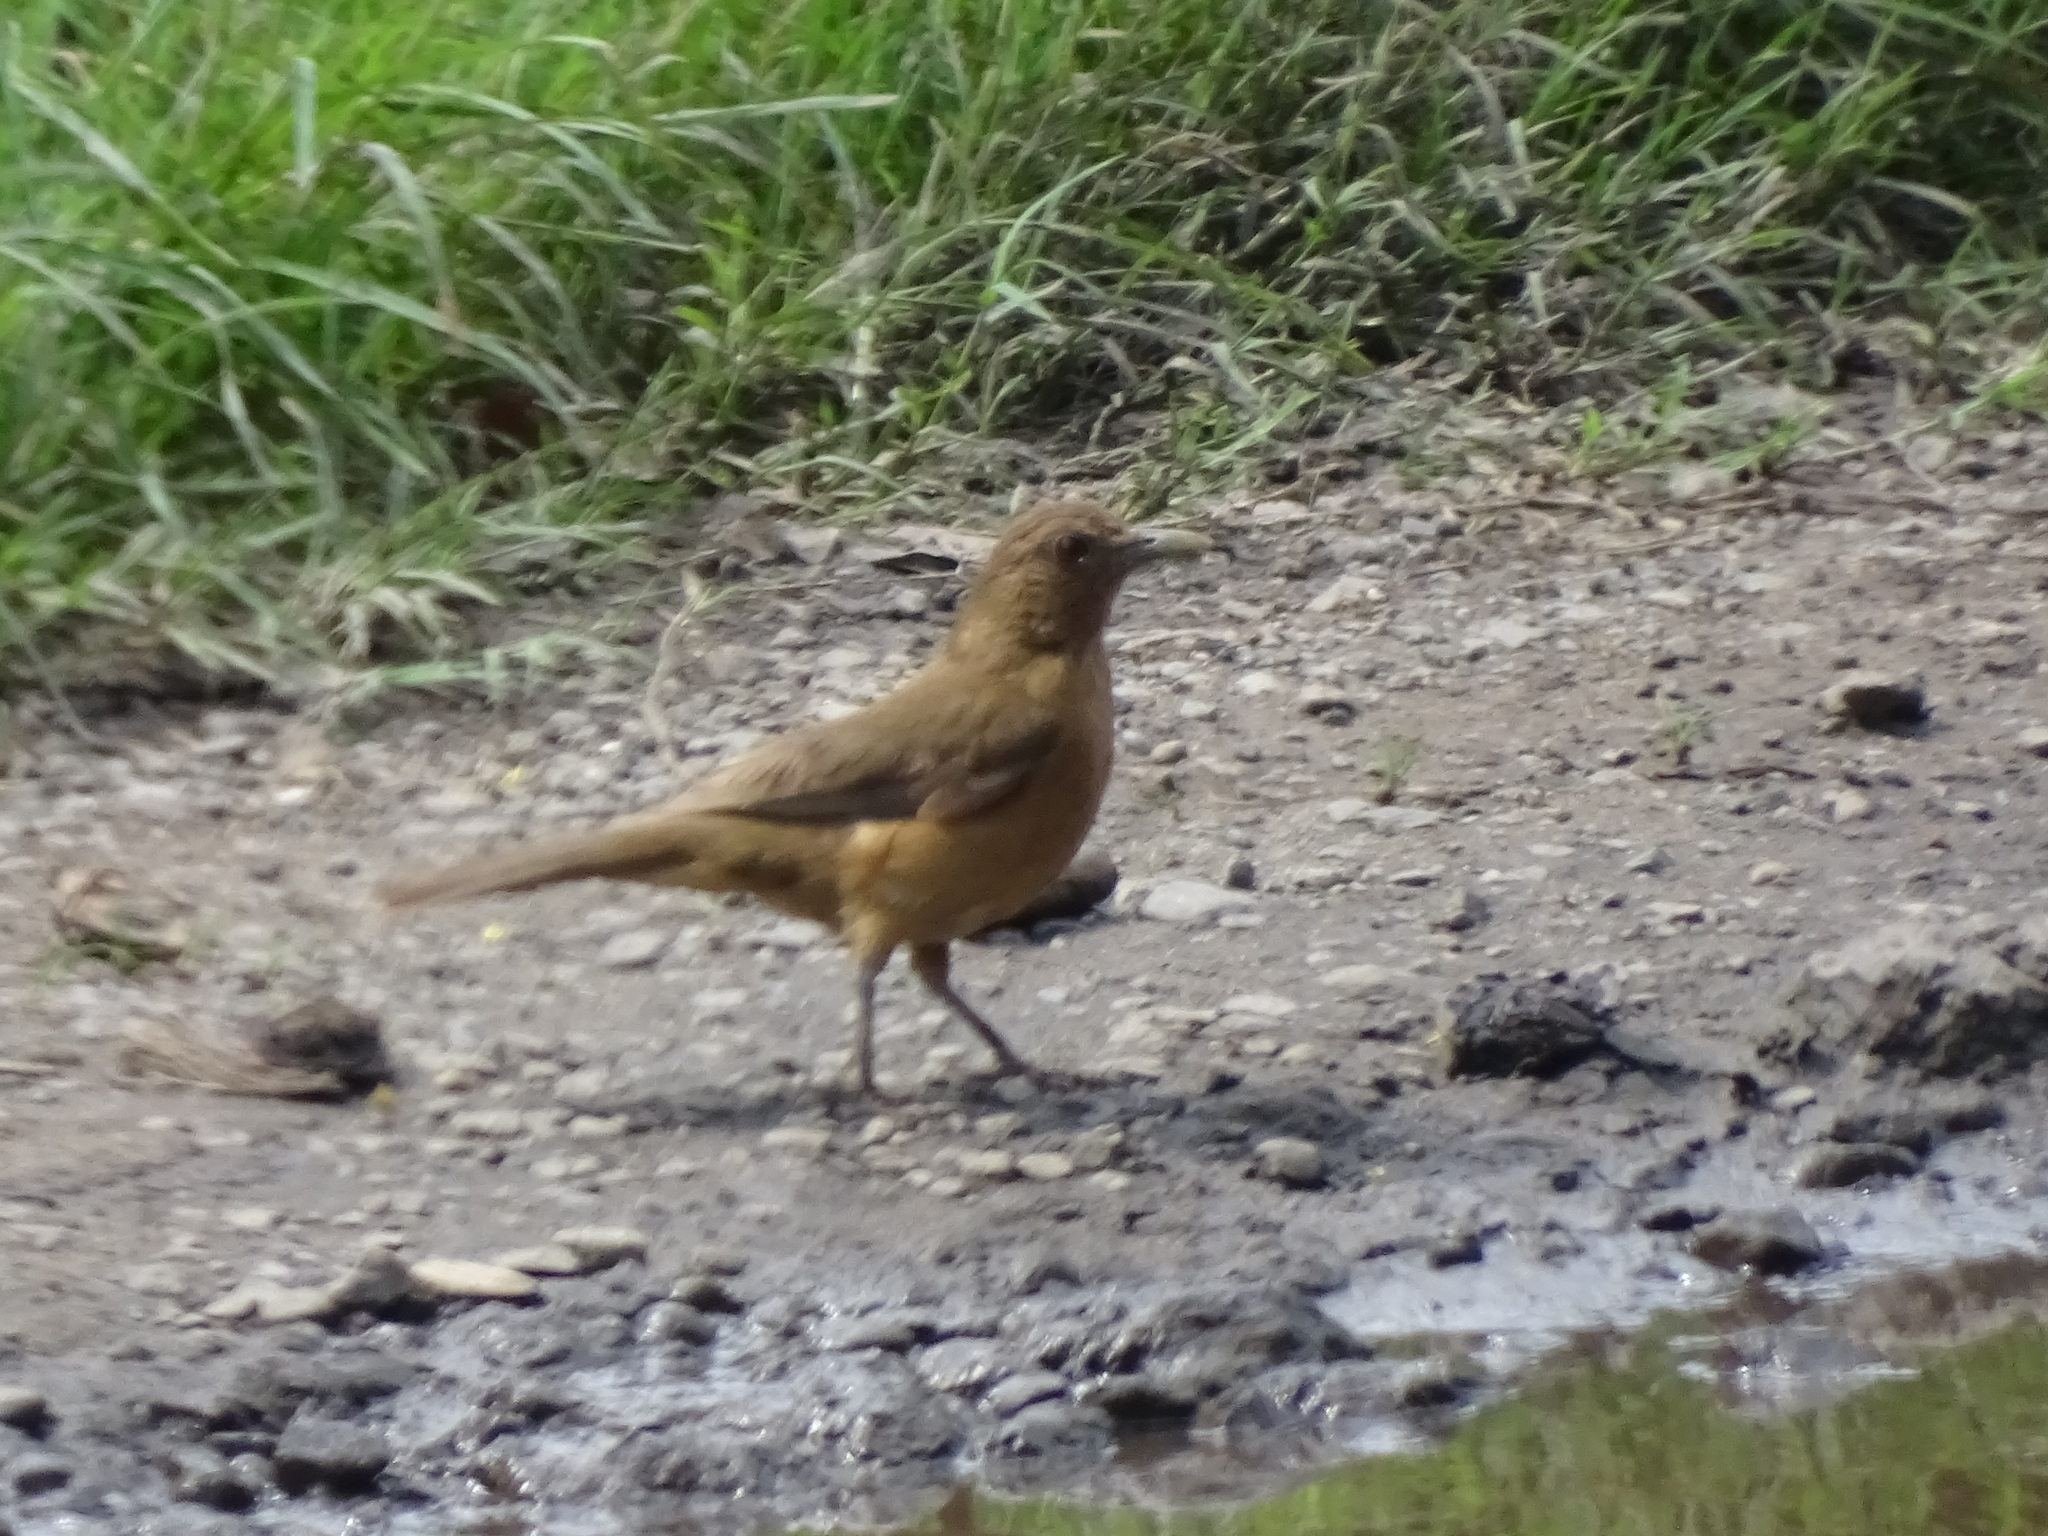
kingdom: Animalia
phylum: Chordata
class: Aves
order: Passeriformes
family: Turdidae
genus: Turdus
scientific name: Turdus grayi
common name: Clay-colored thrush
